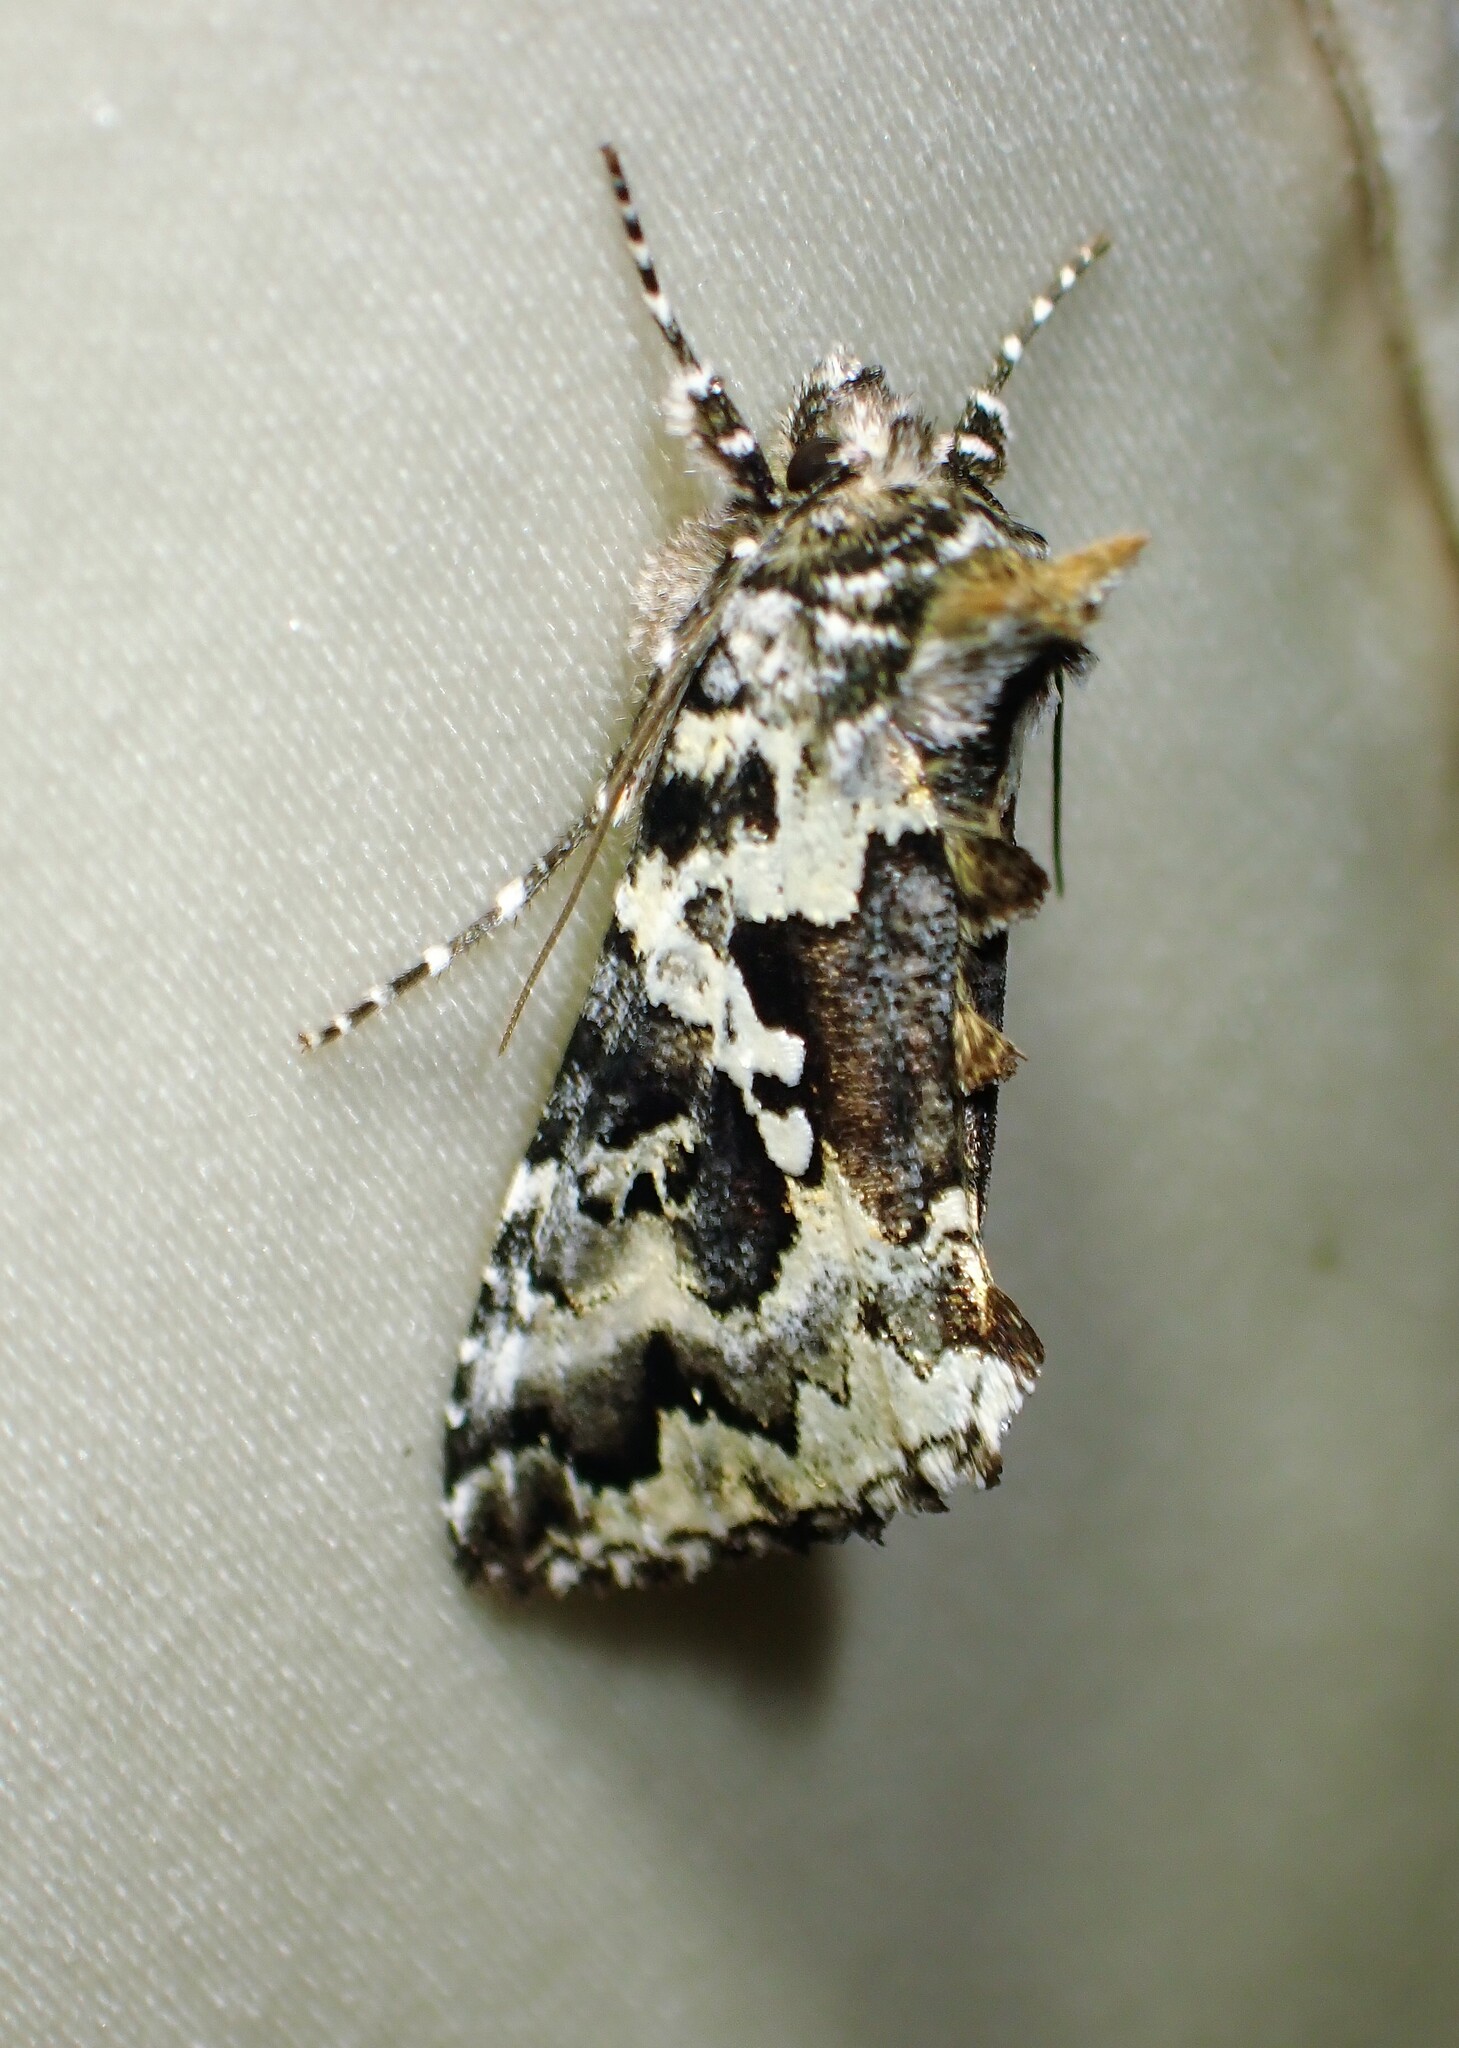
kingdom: Animalia
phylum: Arthropoda
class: Insecta
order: Lepidoptera
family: Noctuidae
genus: Syngrapha
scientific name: Syngrapha rectangula
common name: Angulated cutworm
